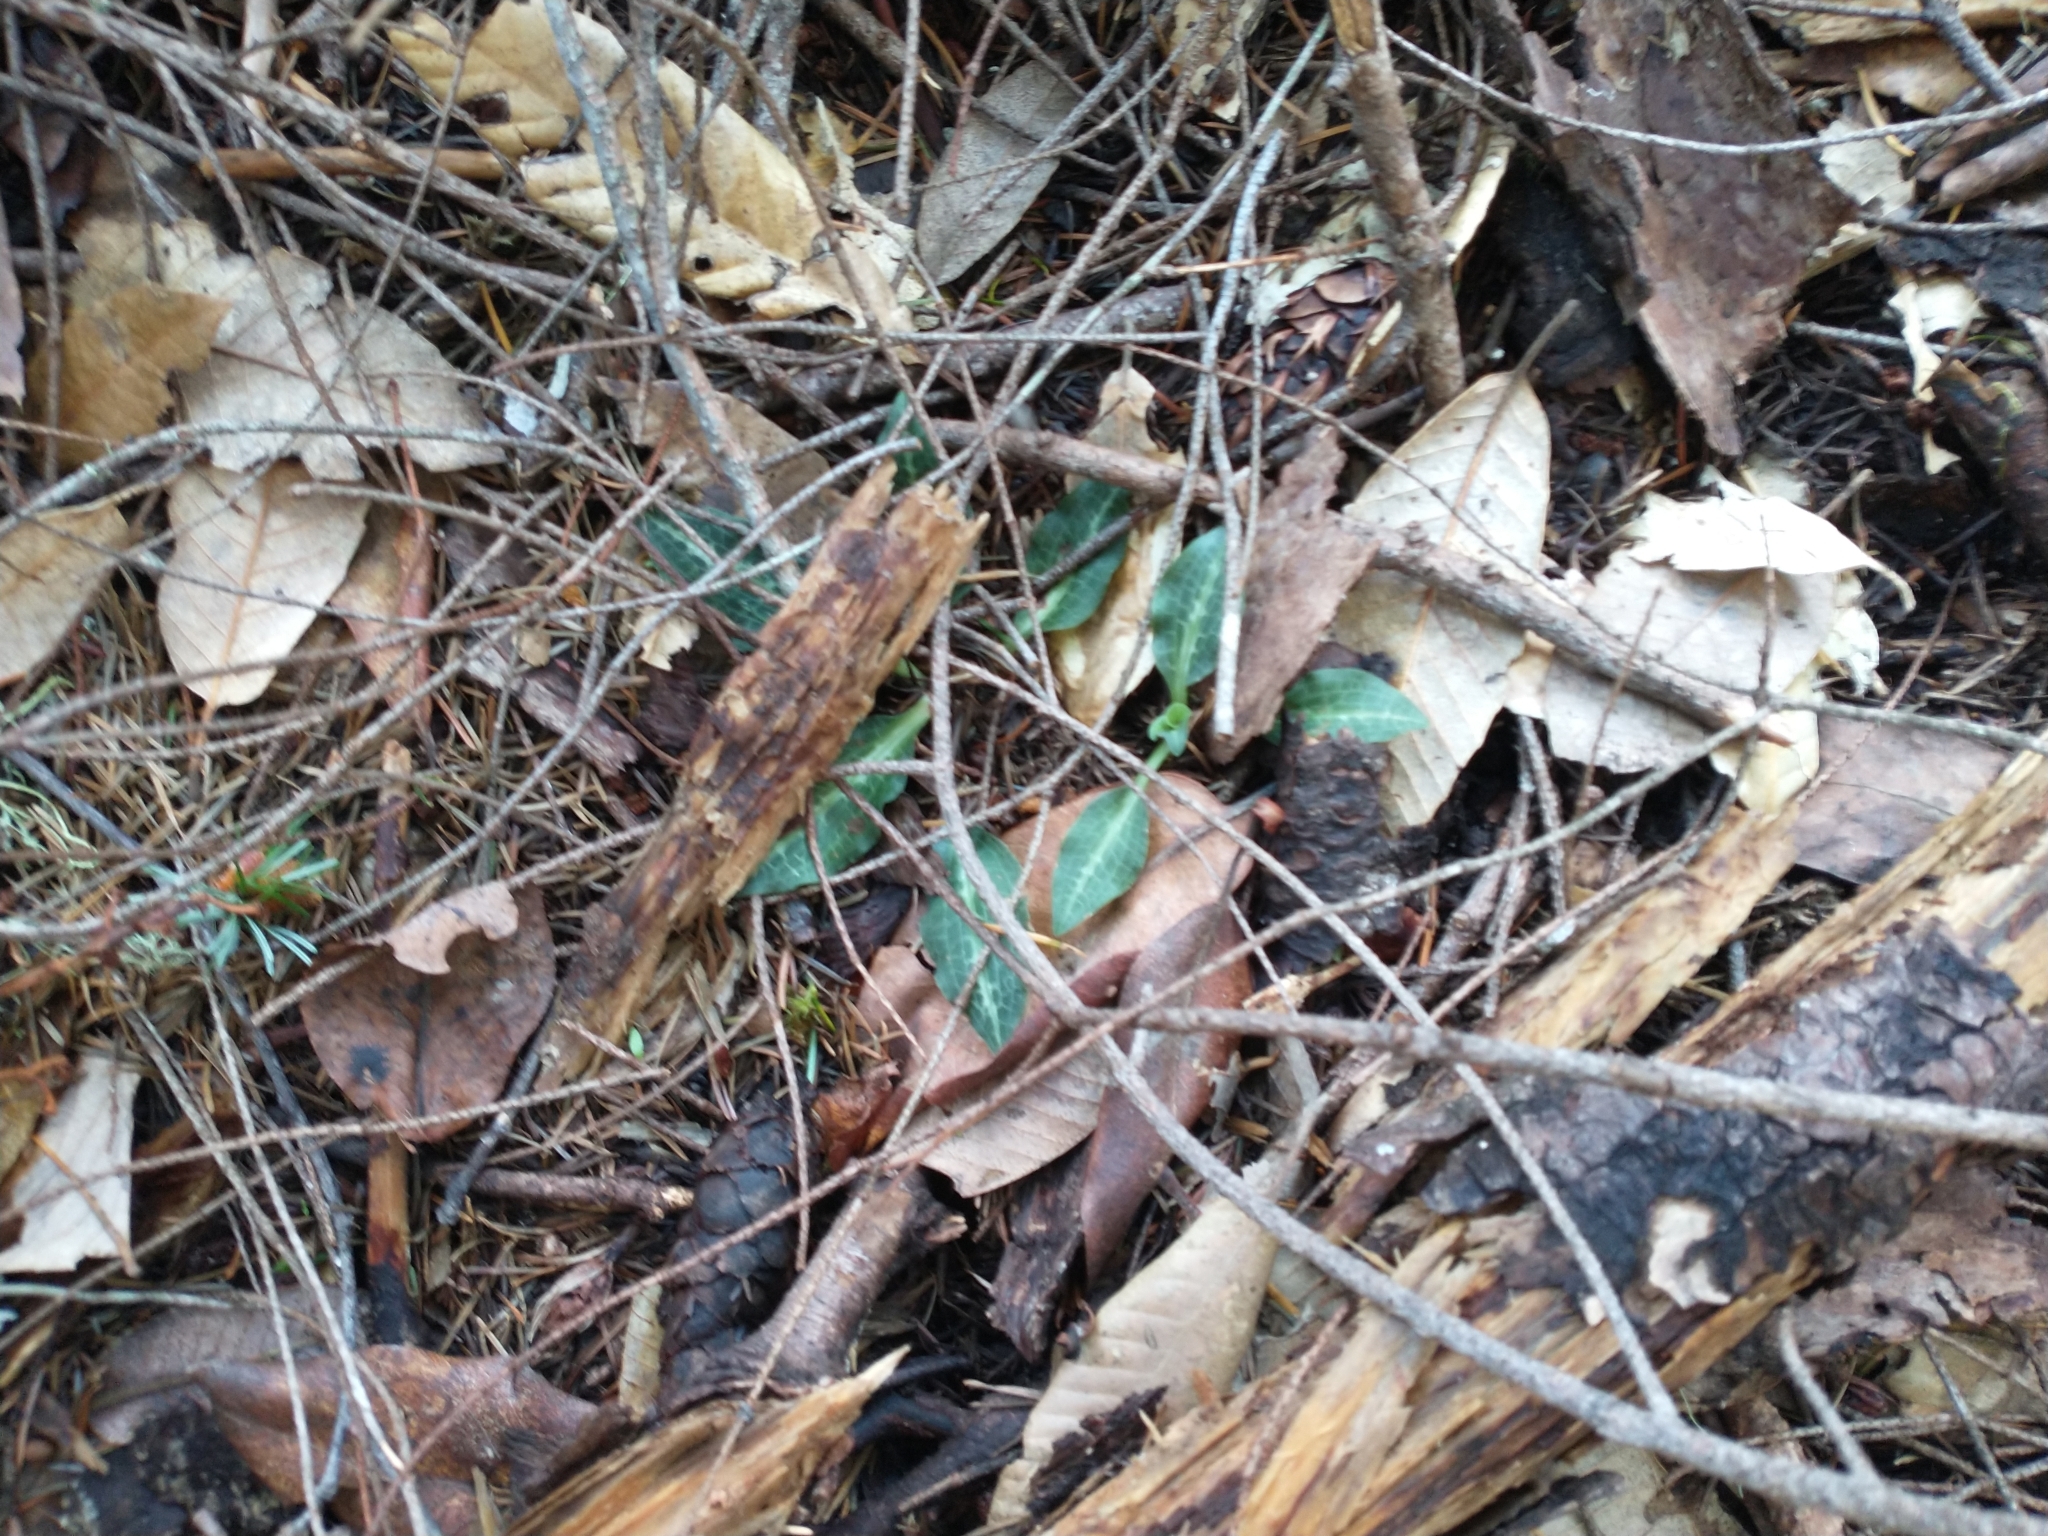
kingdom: Plantae
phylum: Tracheophyta
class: Liliopsida
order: Asparagales
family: Orchidaceae
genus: Goodyera
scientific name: Goodyera oblongifolia
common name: Giant rattlesnake-plantain
